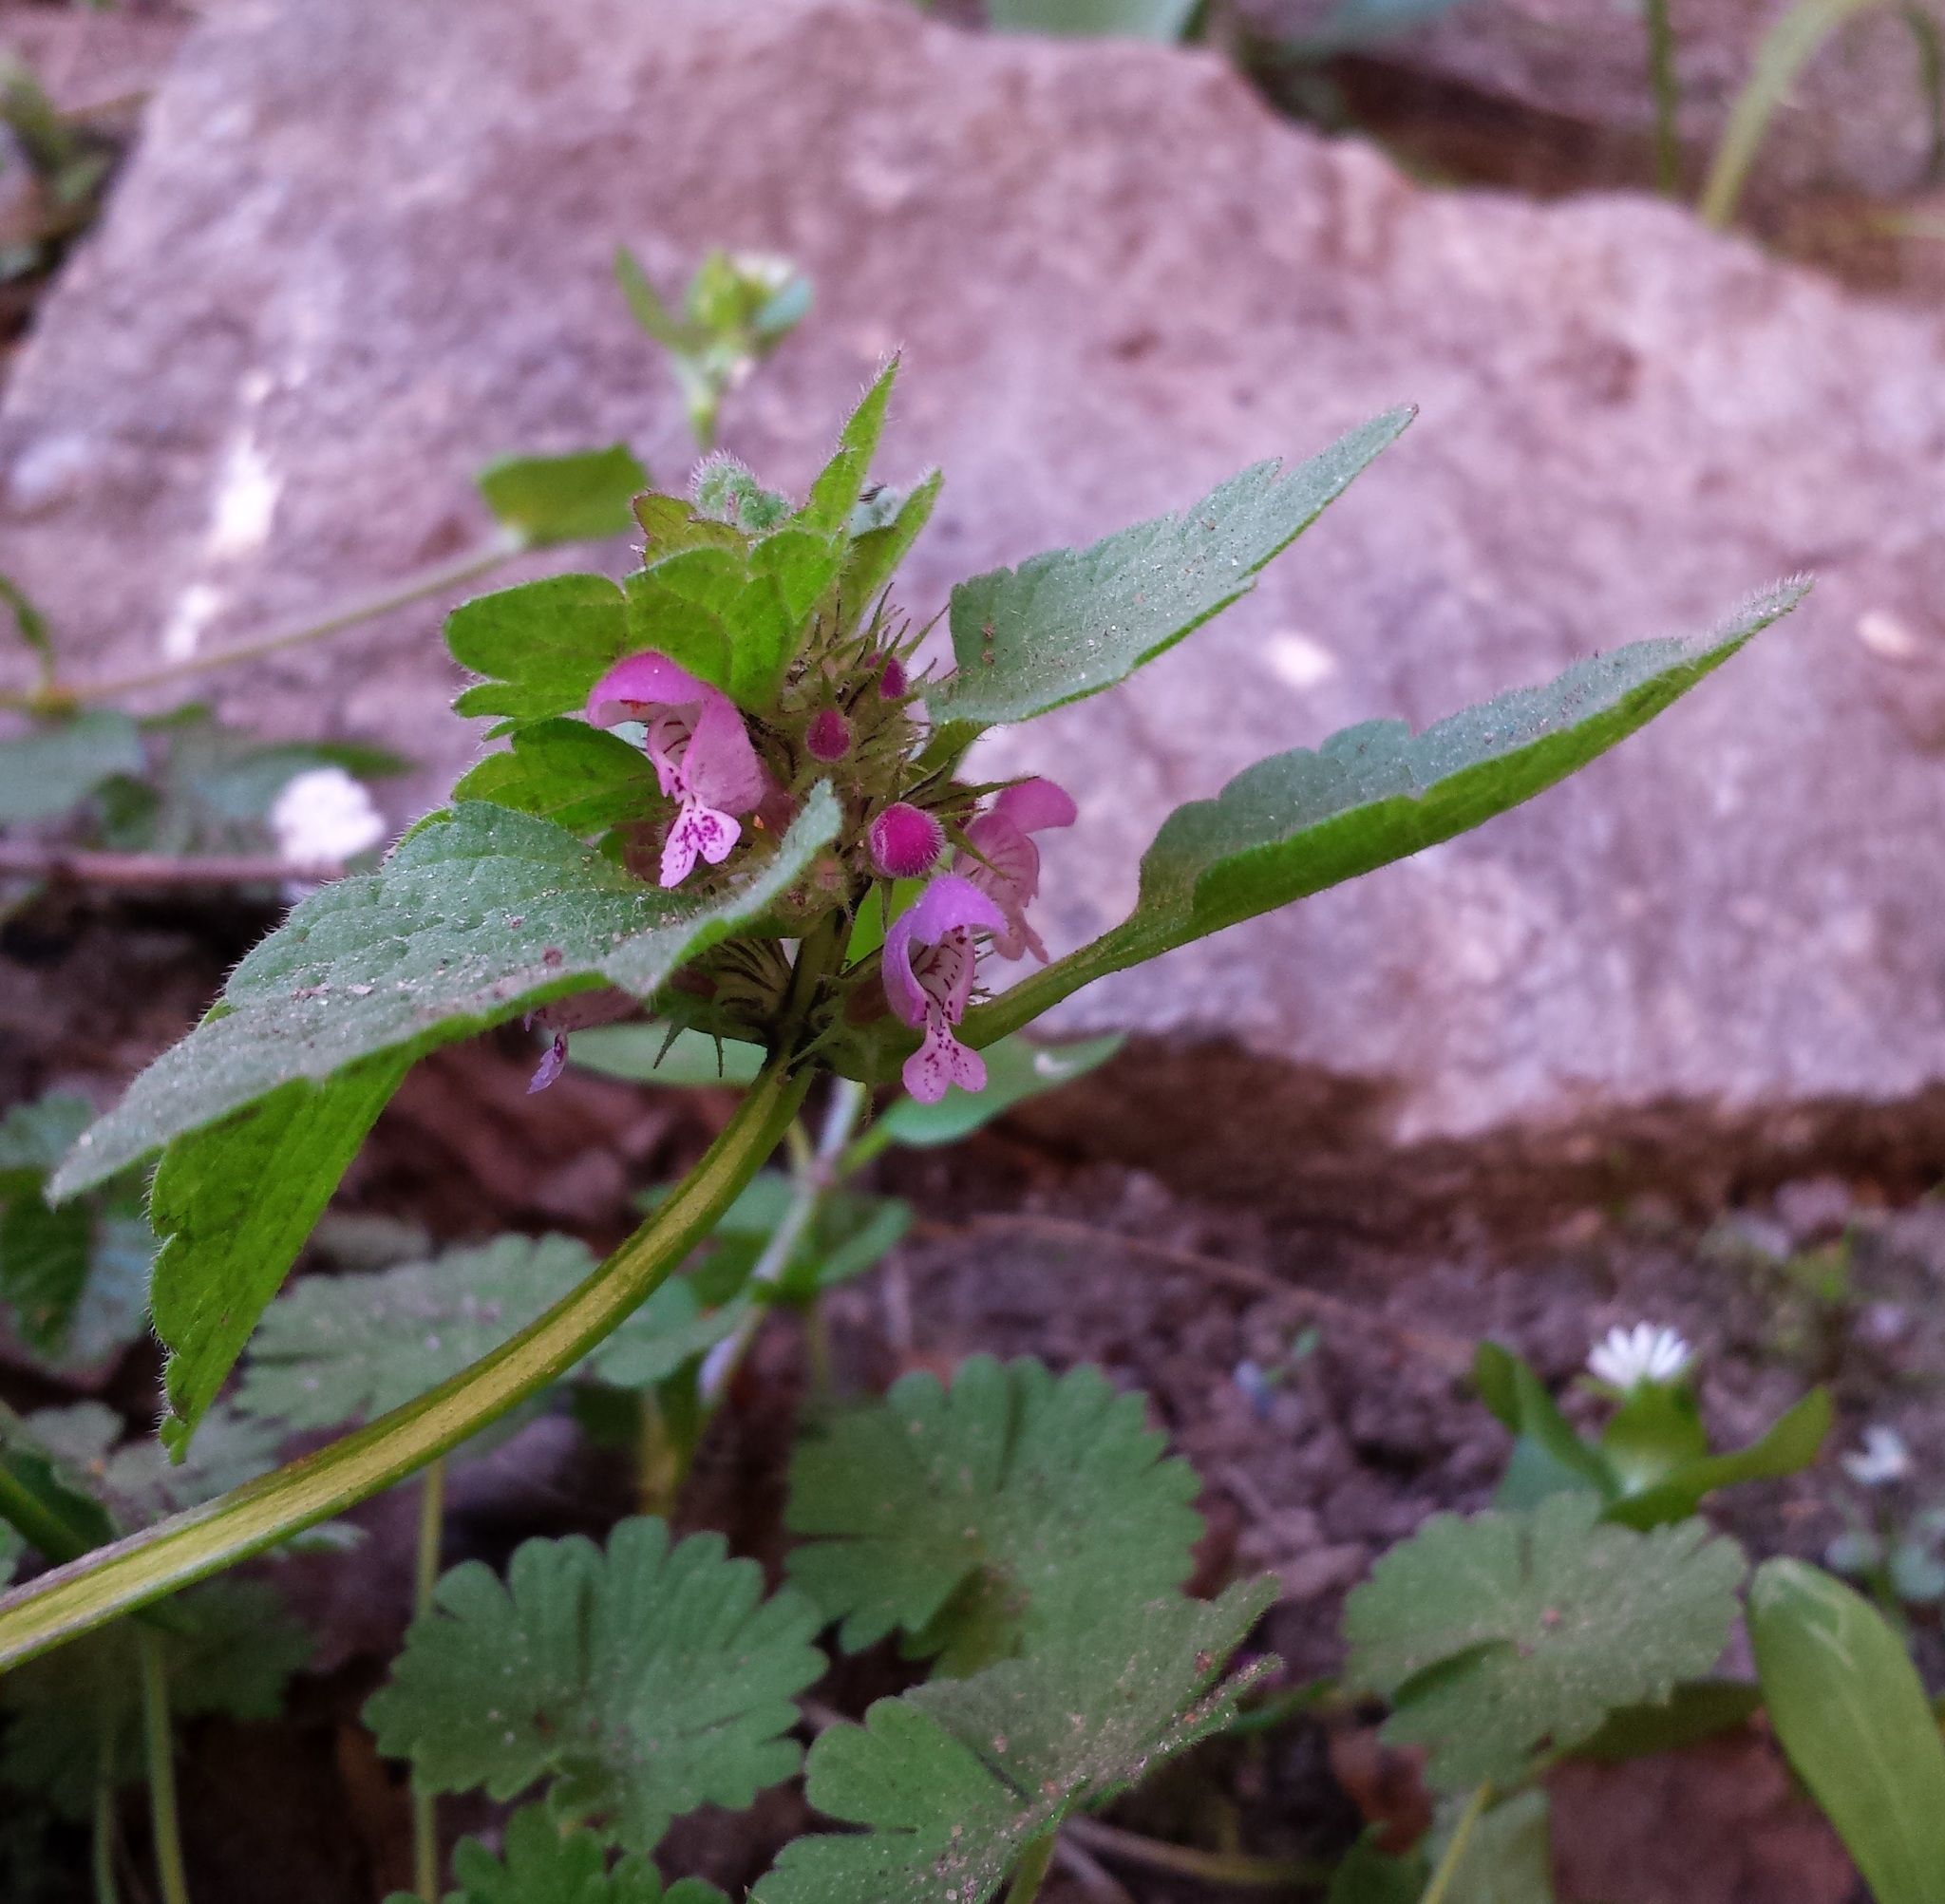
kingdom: Plantae
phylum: Tracheophyta
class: Magnoliopsida
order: Lamiales
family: Lamiaceae
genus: Lamium
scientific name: Lamium purpureum
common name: Red dead-nettle
